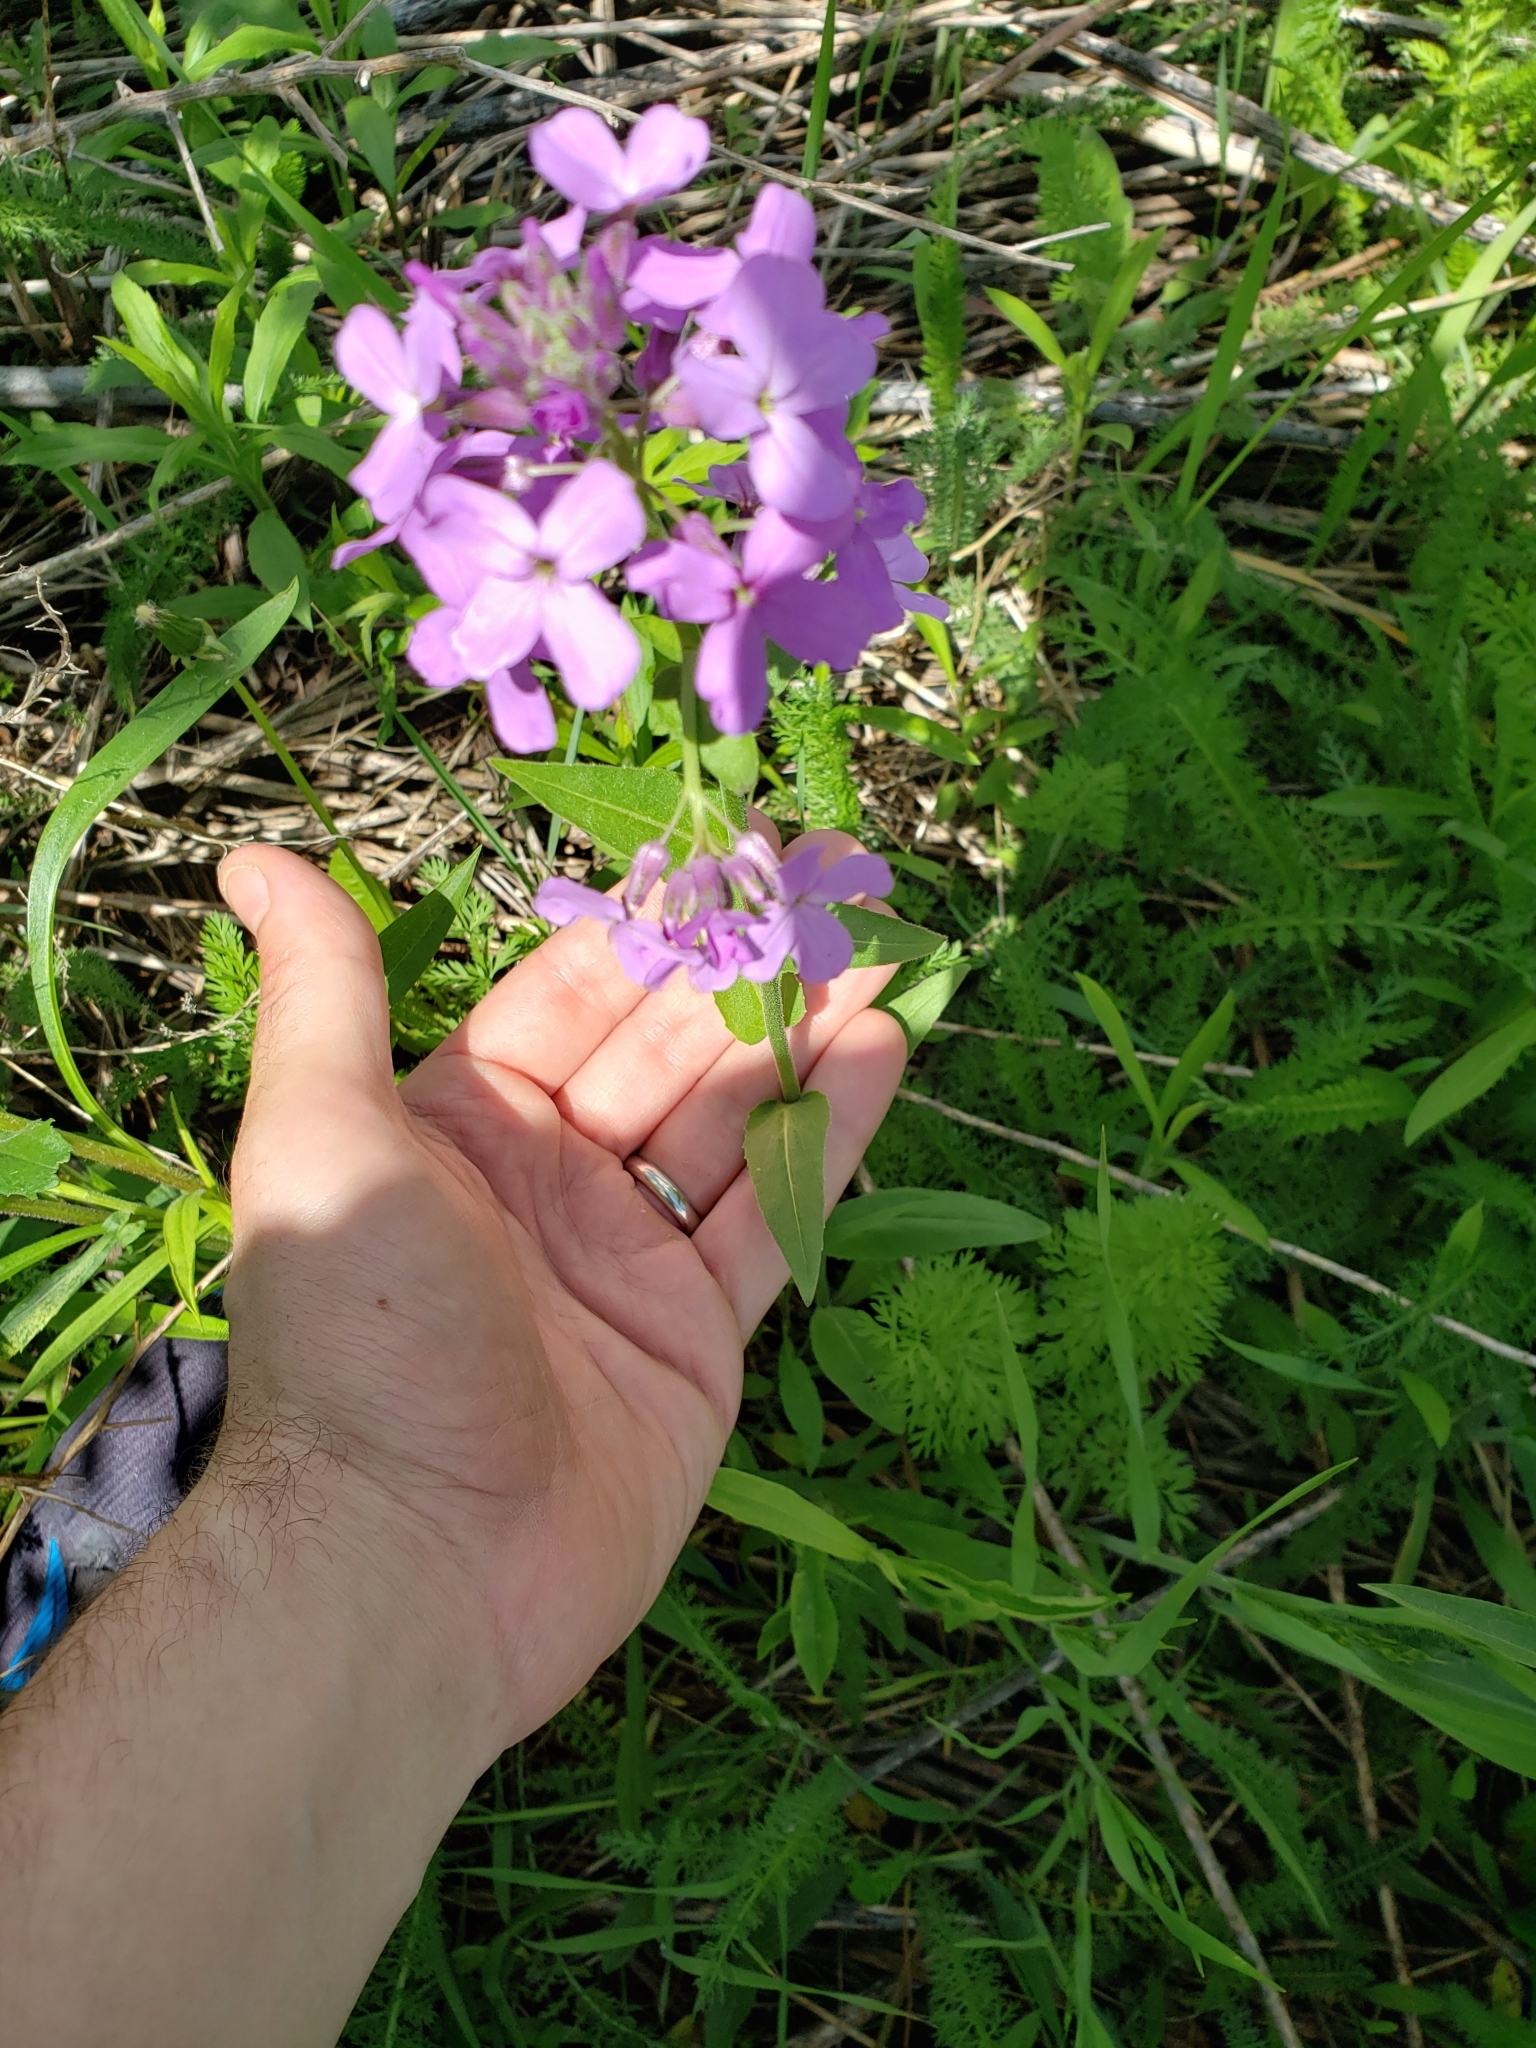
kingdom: Plantae
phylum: Tracheophyta
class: Magnoliopsida
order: Brassicales
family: Brassicaceae
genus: Hesperis
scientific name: Hesperis matronalis
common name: Dame's-violet
